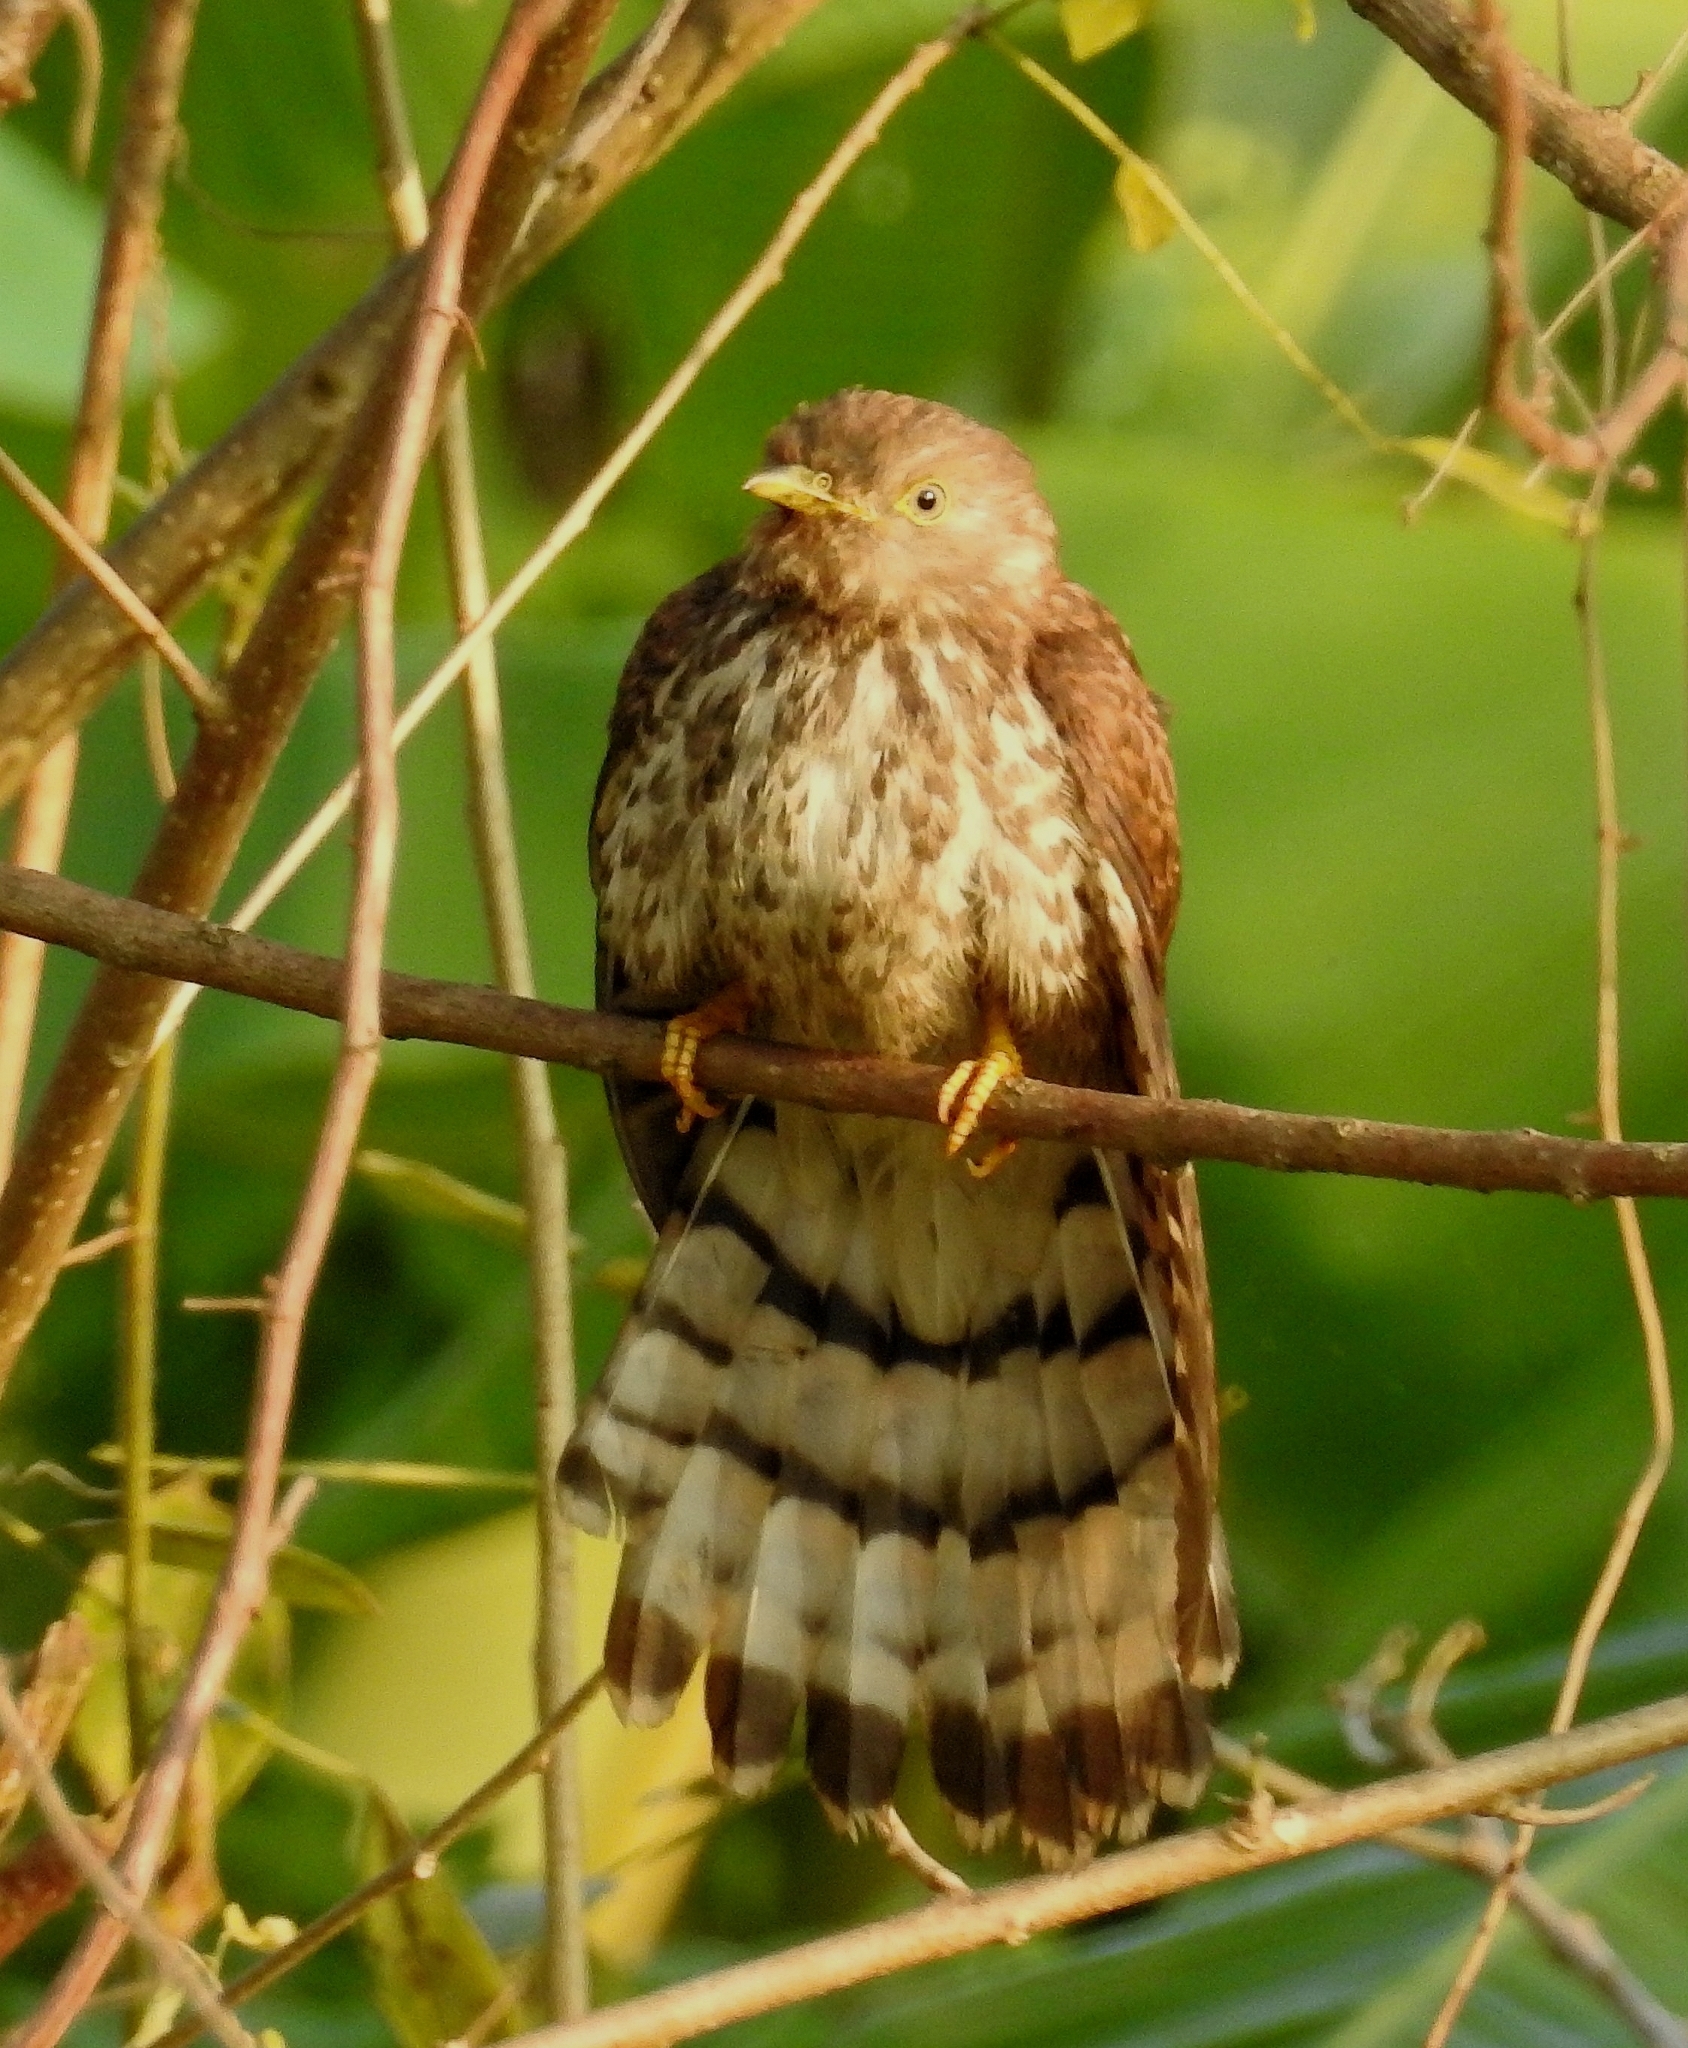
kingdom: Animalia
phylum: Chordata
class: Aves
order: Cuculiformes
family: Cuculidae
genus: Cuculus
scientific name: Cuculus varius
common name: Common hawk cuckoo
